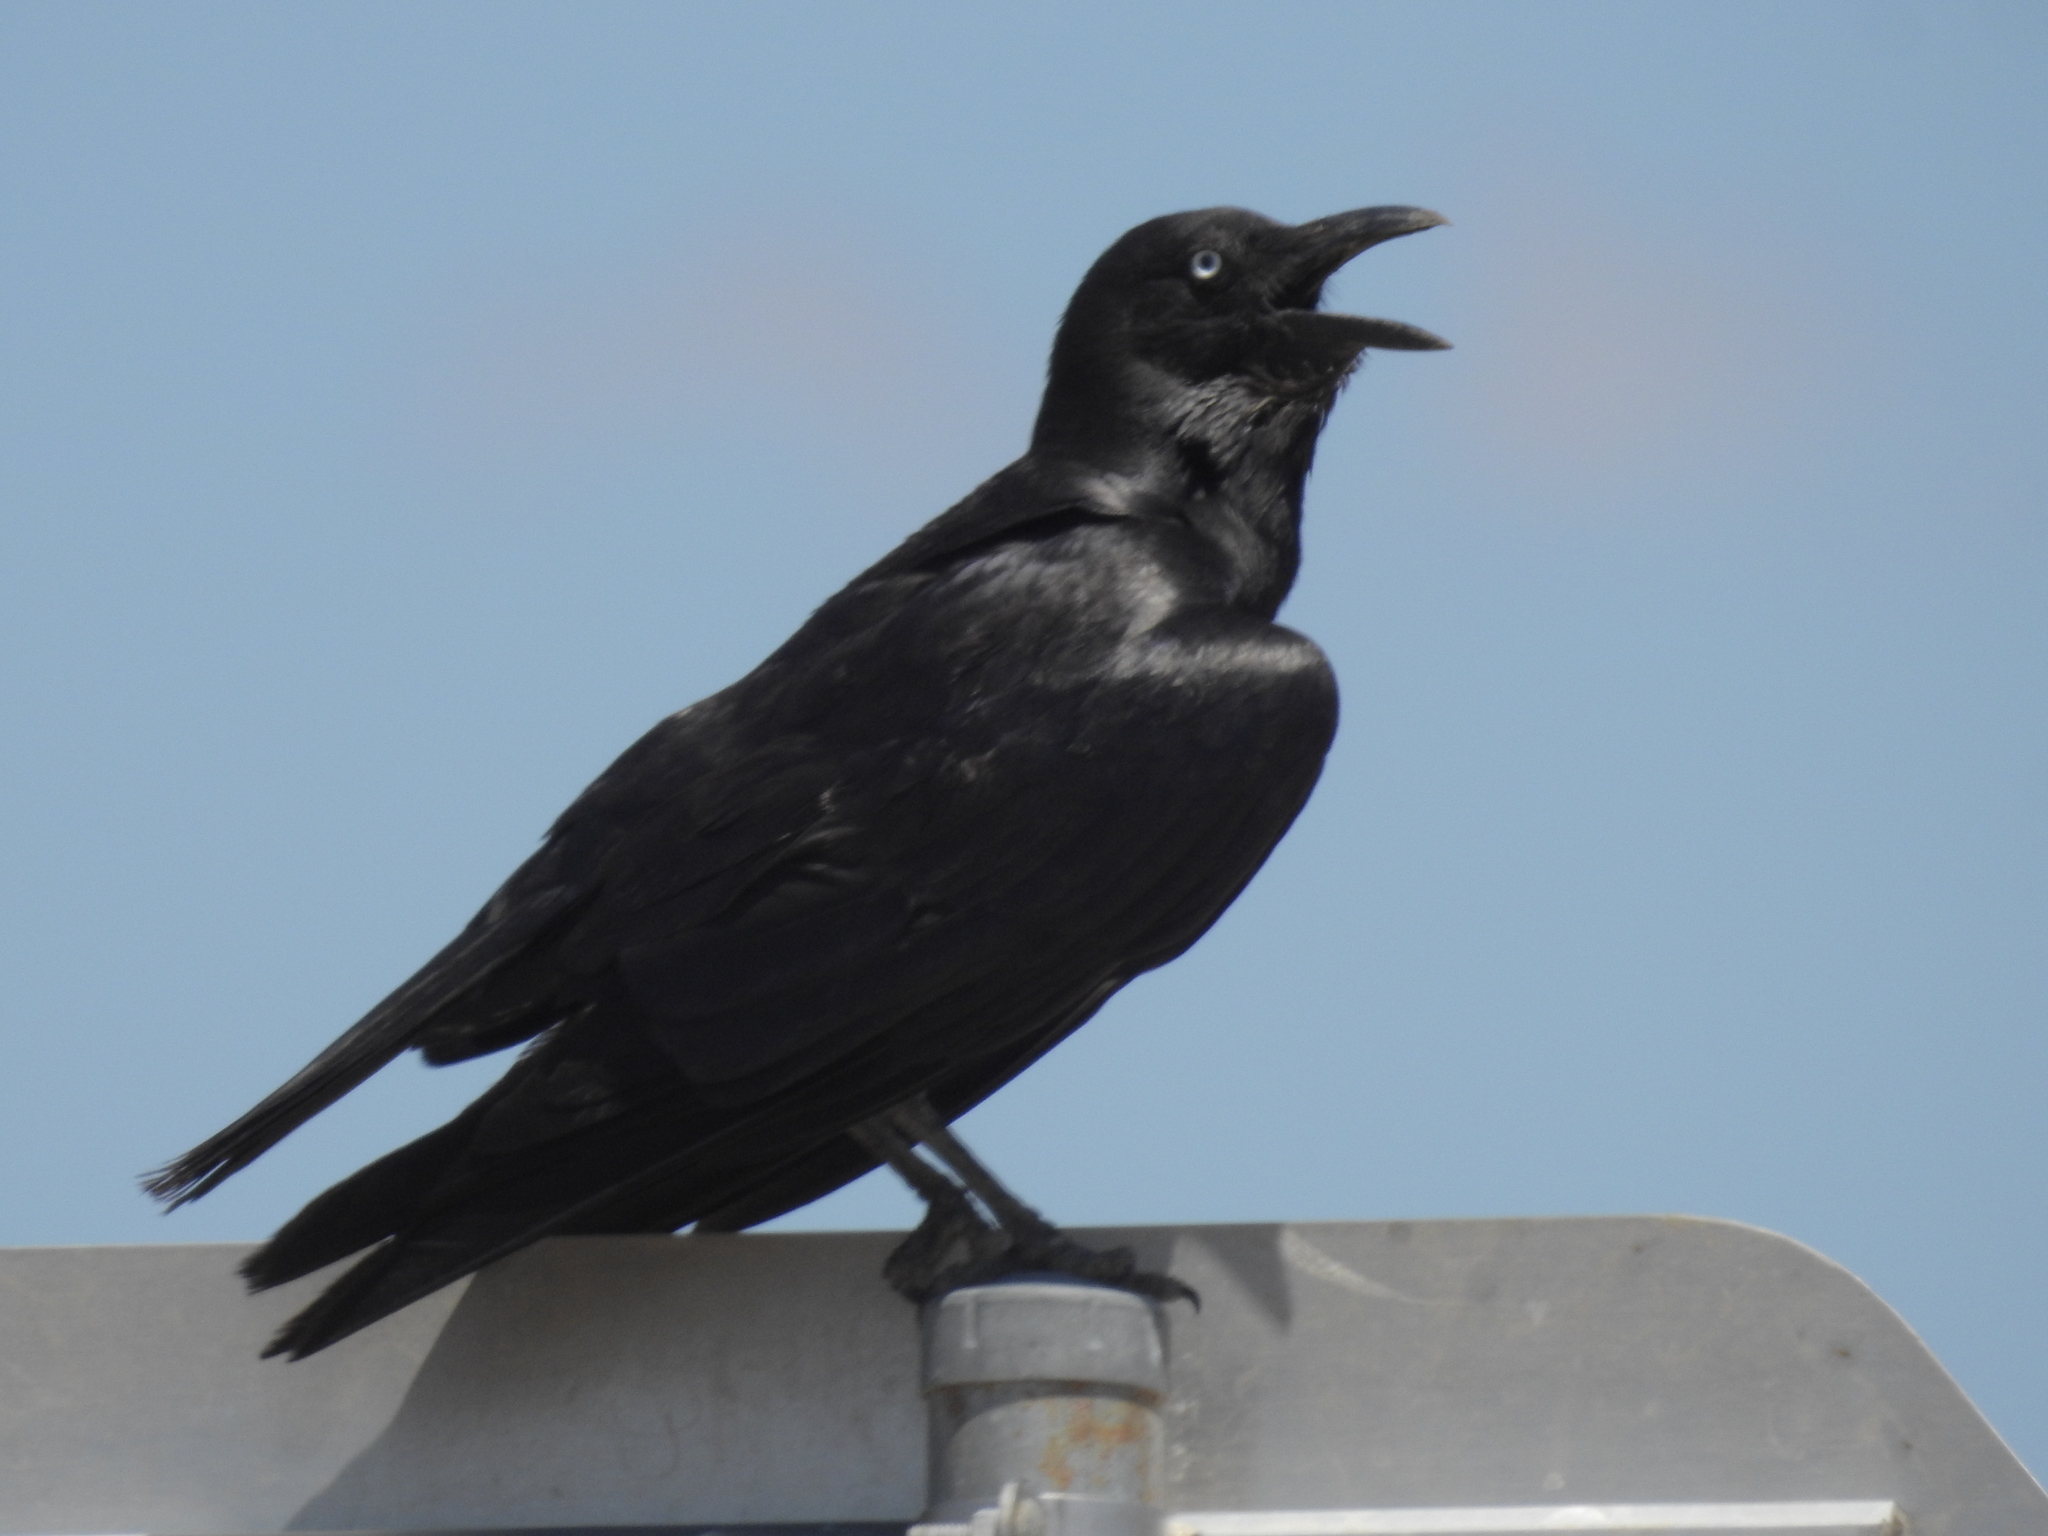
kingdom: Animalia
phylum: Chordata
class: Aves
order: Passeriformes
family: Corvidae
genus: Corvus
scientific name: Corvus orru
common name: Torresian crow
